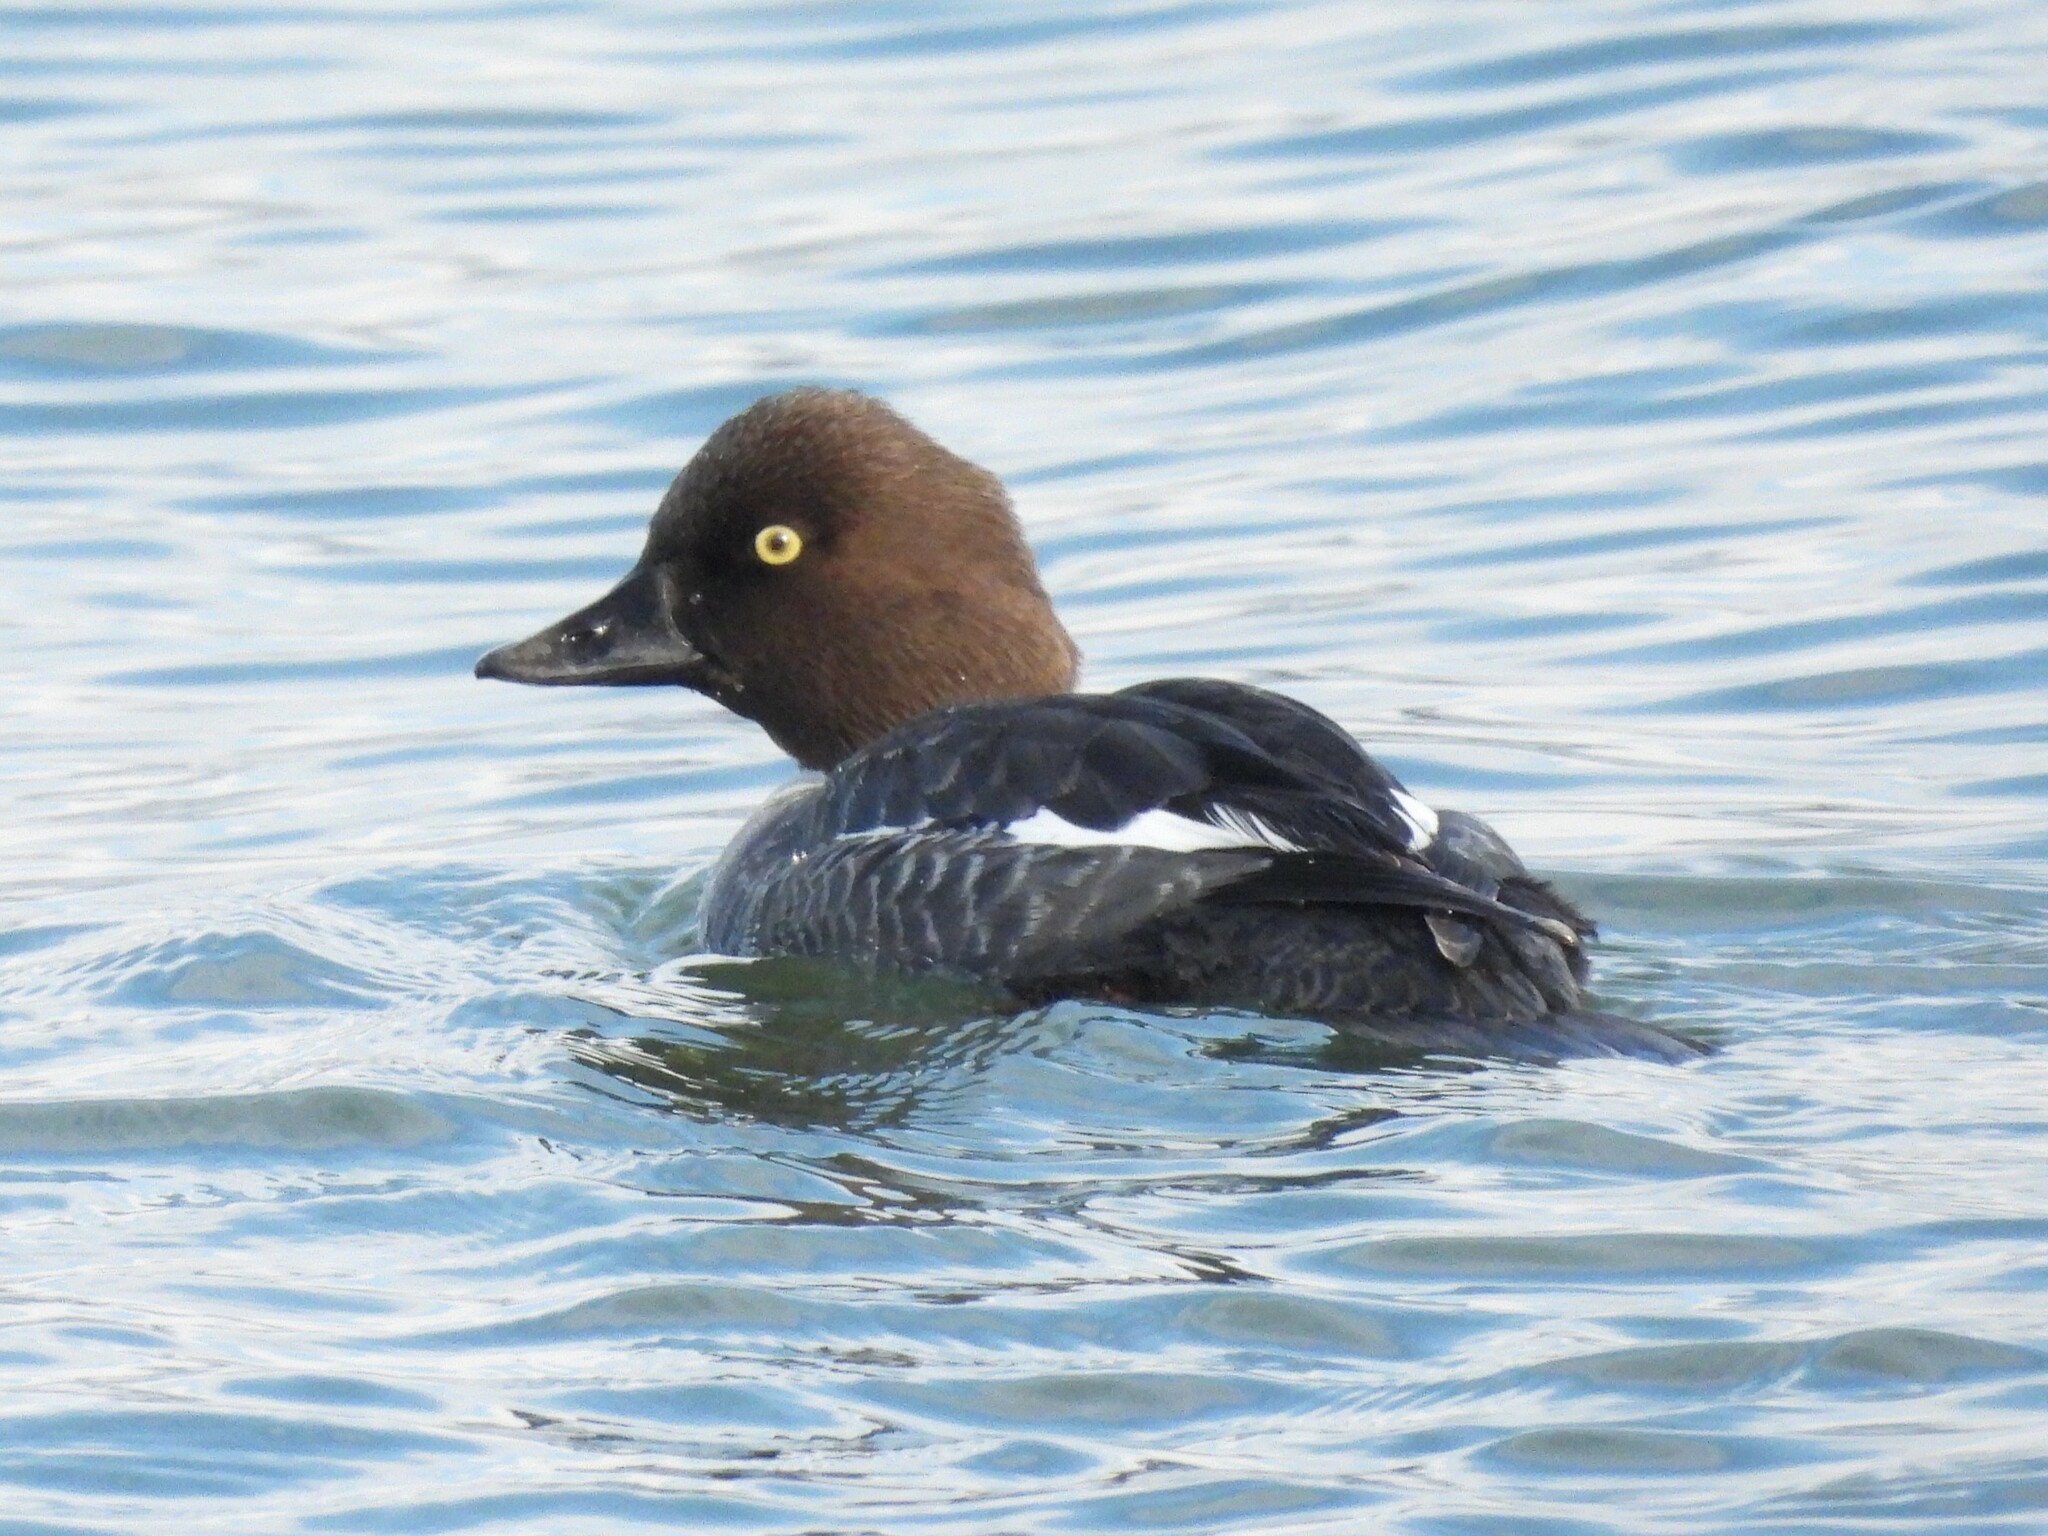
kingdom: Animalia
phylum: Chordata
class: Aves
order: Anseriformes
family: Anatidae
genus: Bucephala
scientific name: Bucephala clangula
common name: Common goldeneye
